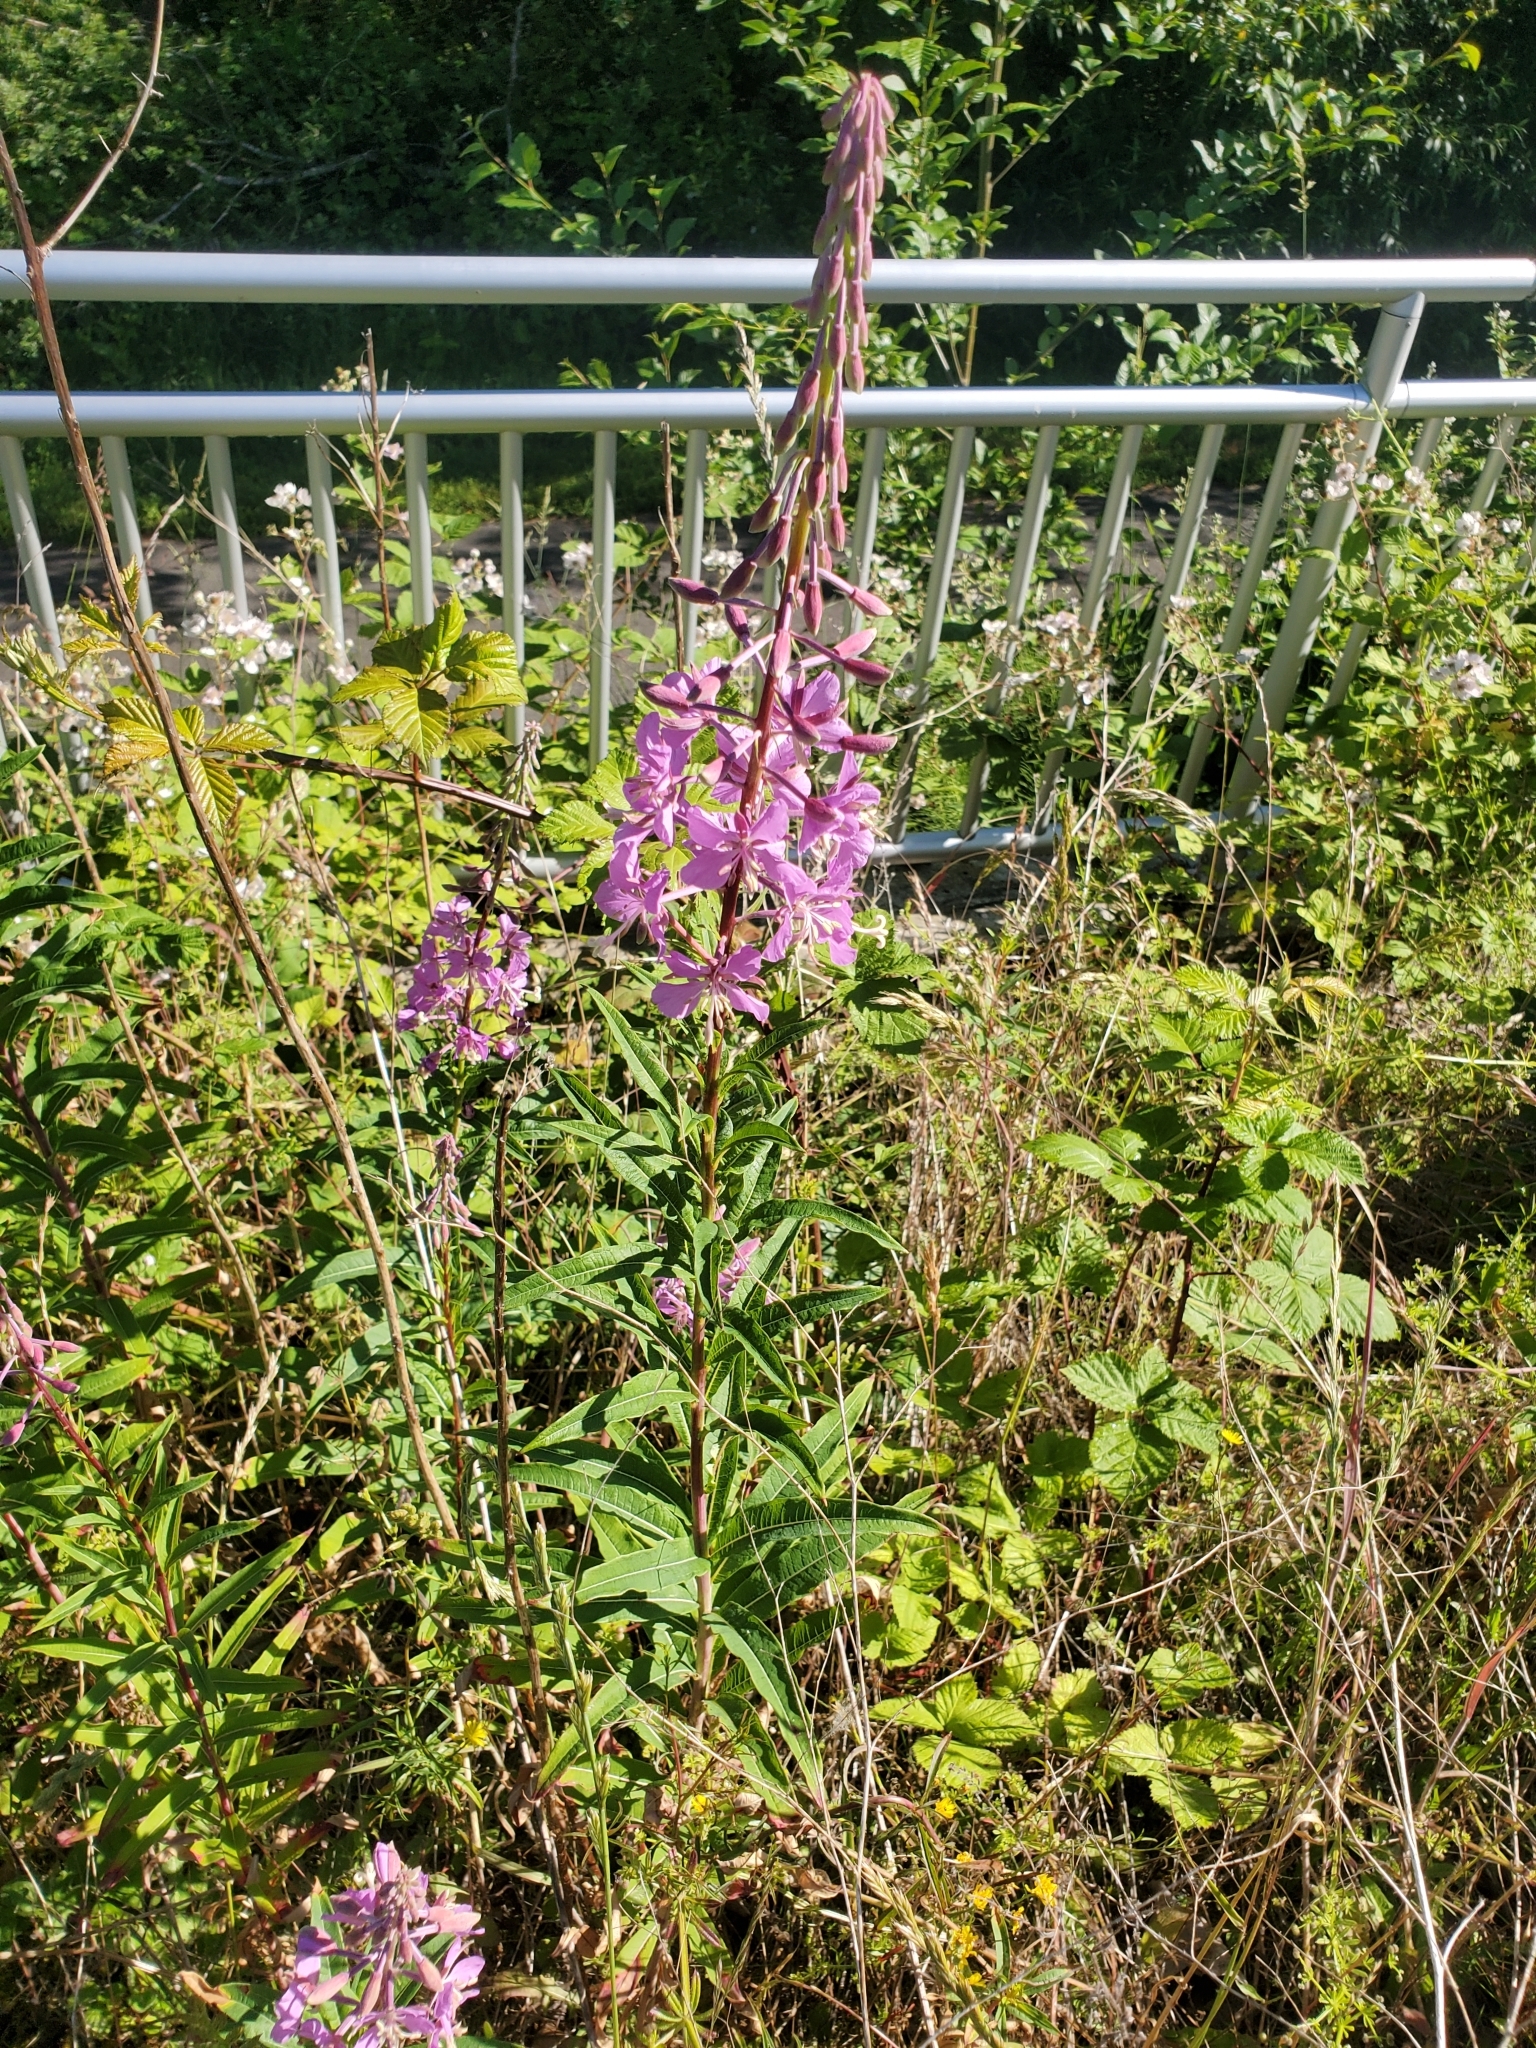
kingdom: Plantae
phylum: Tracheophyta
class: Magnoliopsida
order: Myrtales
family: Onagraceae
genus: Chamaenerion
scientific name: Chamaenerion angustifolium
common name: Fireweed
